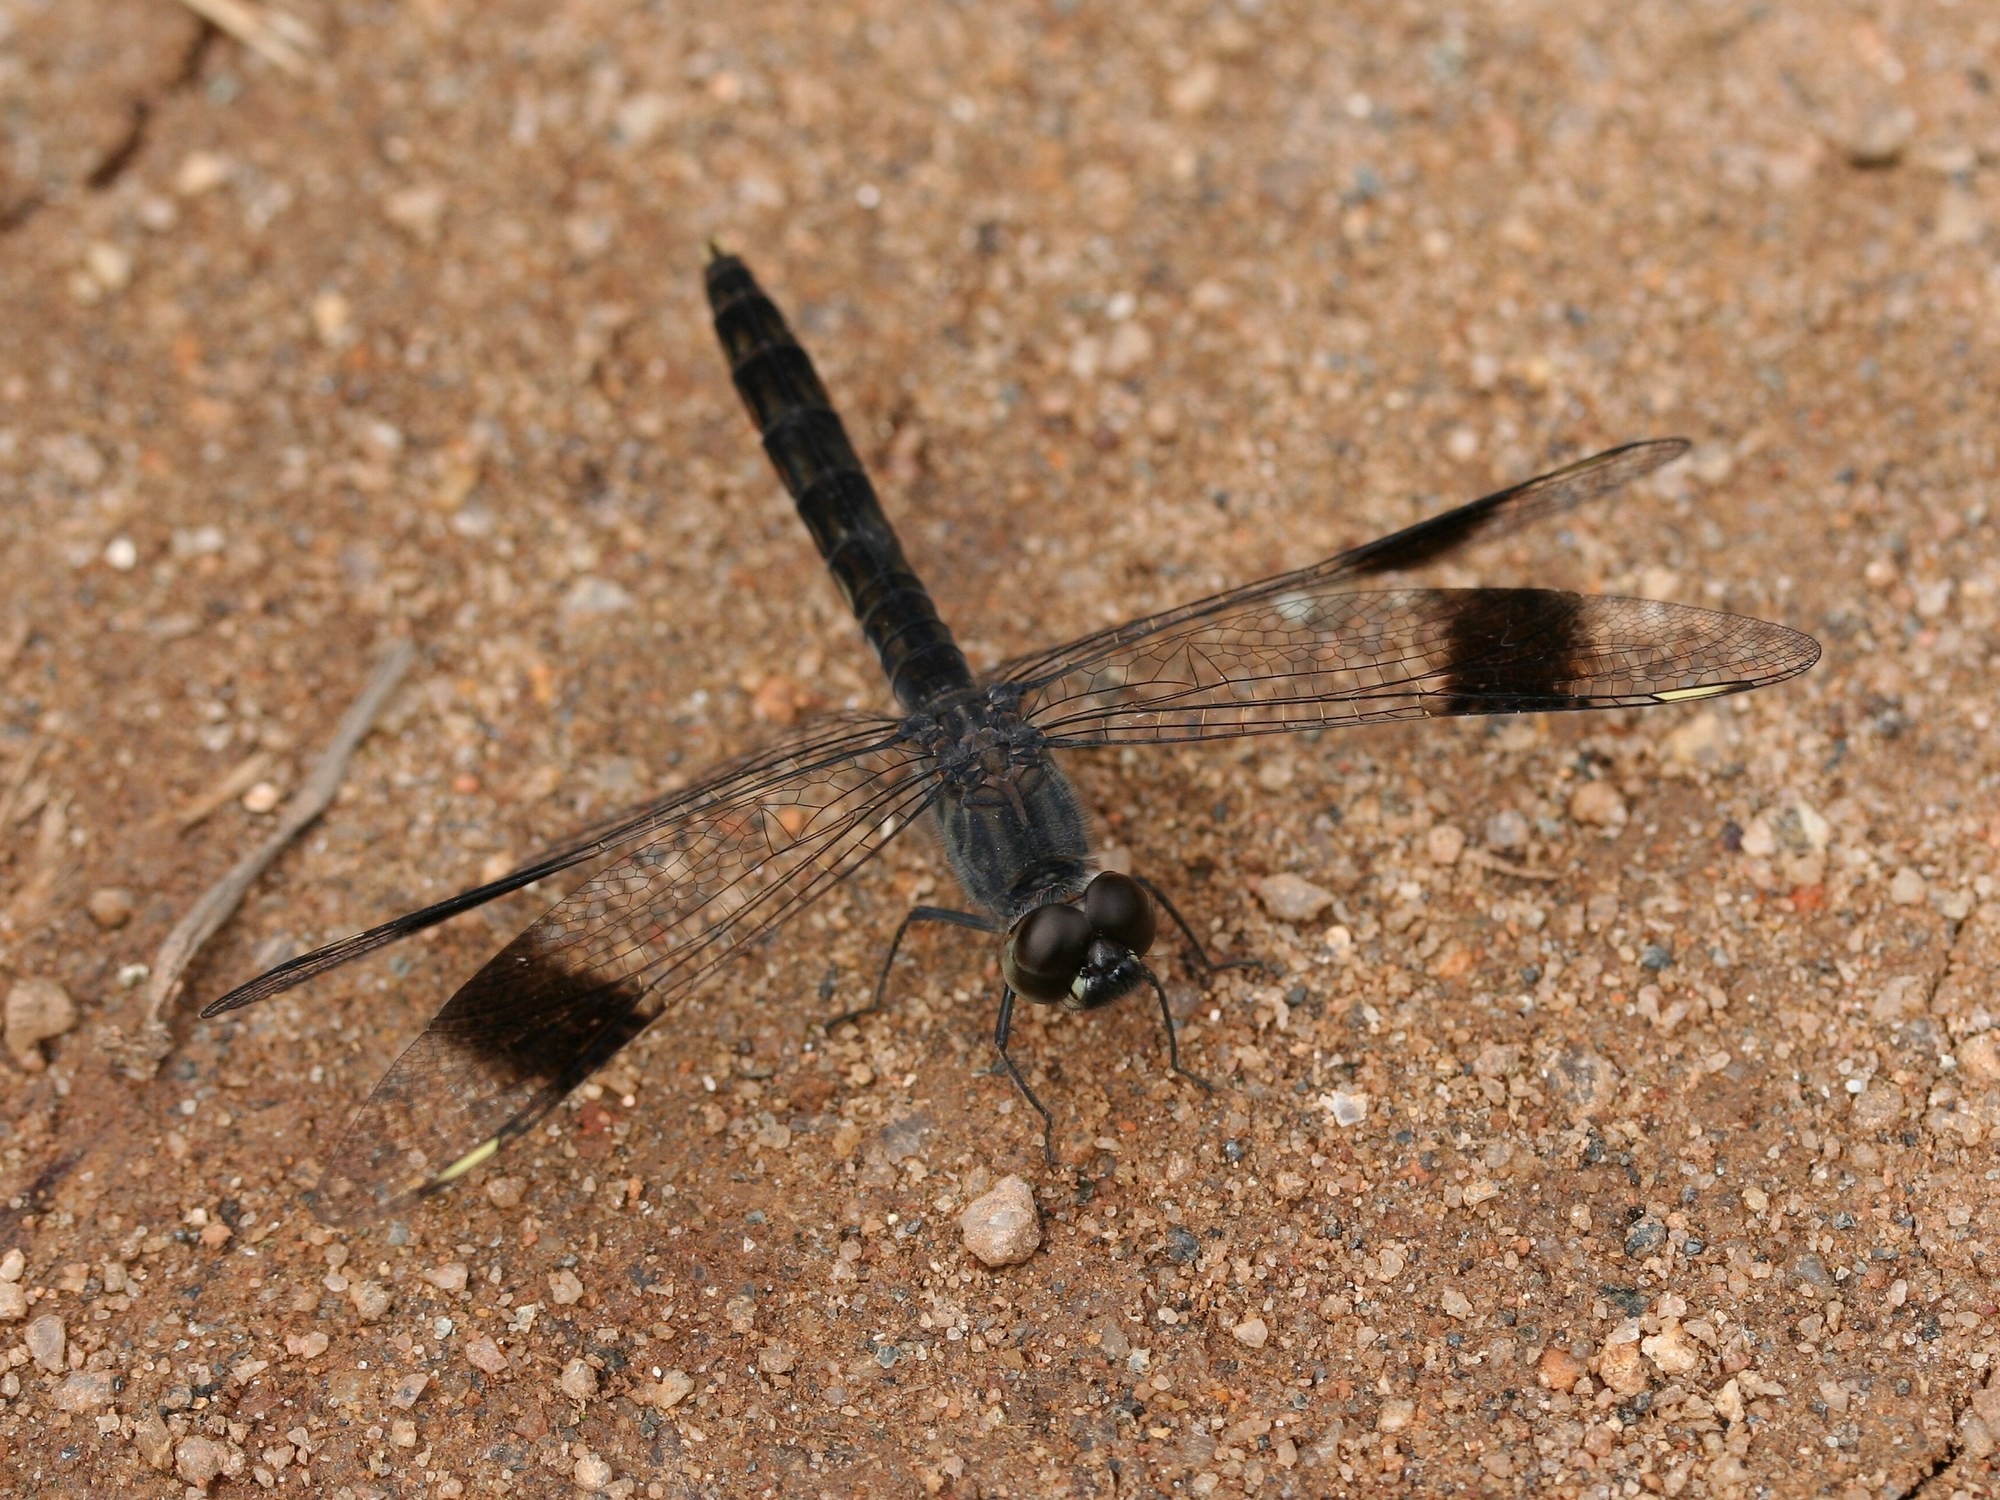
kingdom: Animalia
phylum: Arthropoda
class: Insecta
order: Odonata
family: Libellulidae
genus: Brachythemis
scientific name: Brachythemis leucosticta
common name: Banded groundling
